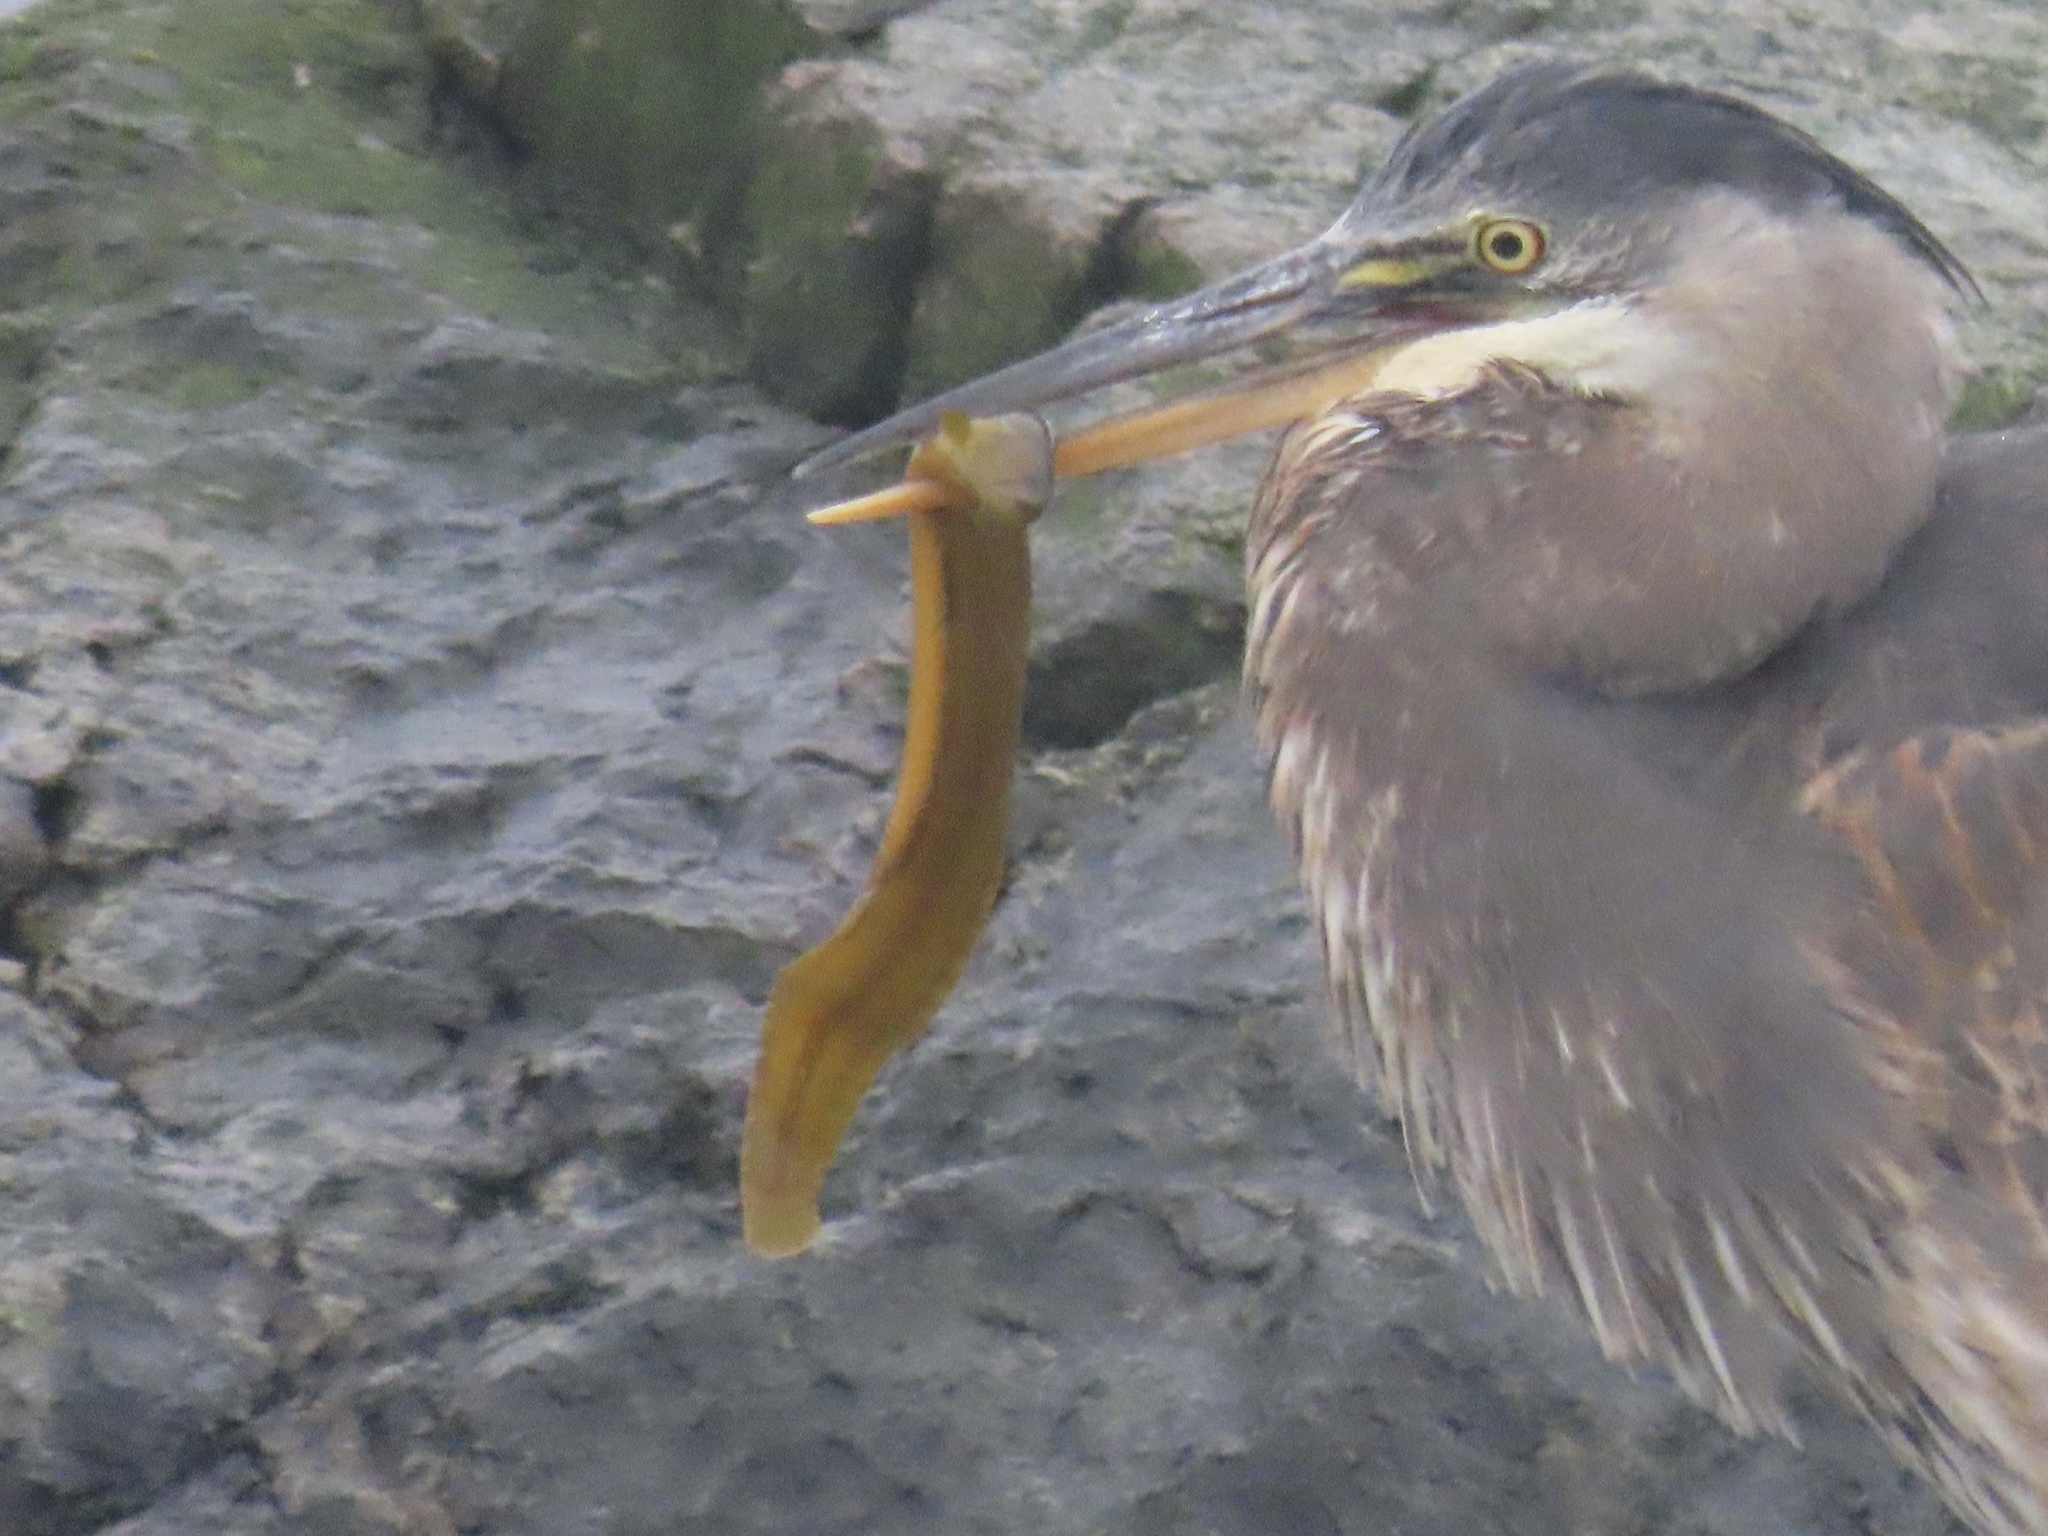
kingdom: Animalia
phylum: Chordata
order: Perciformes
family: Pholidae
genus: Apodichthys
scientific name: Apodichthys flavidus
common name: Penpoint gunnel
